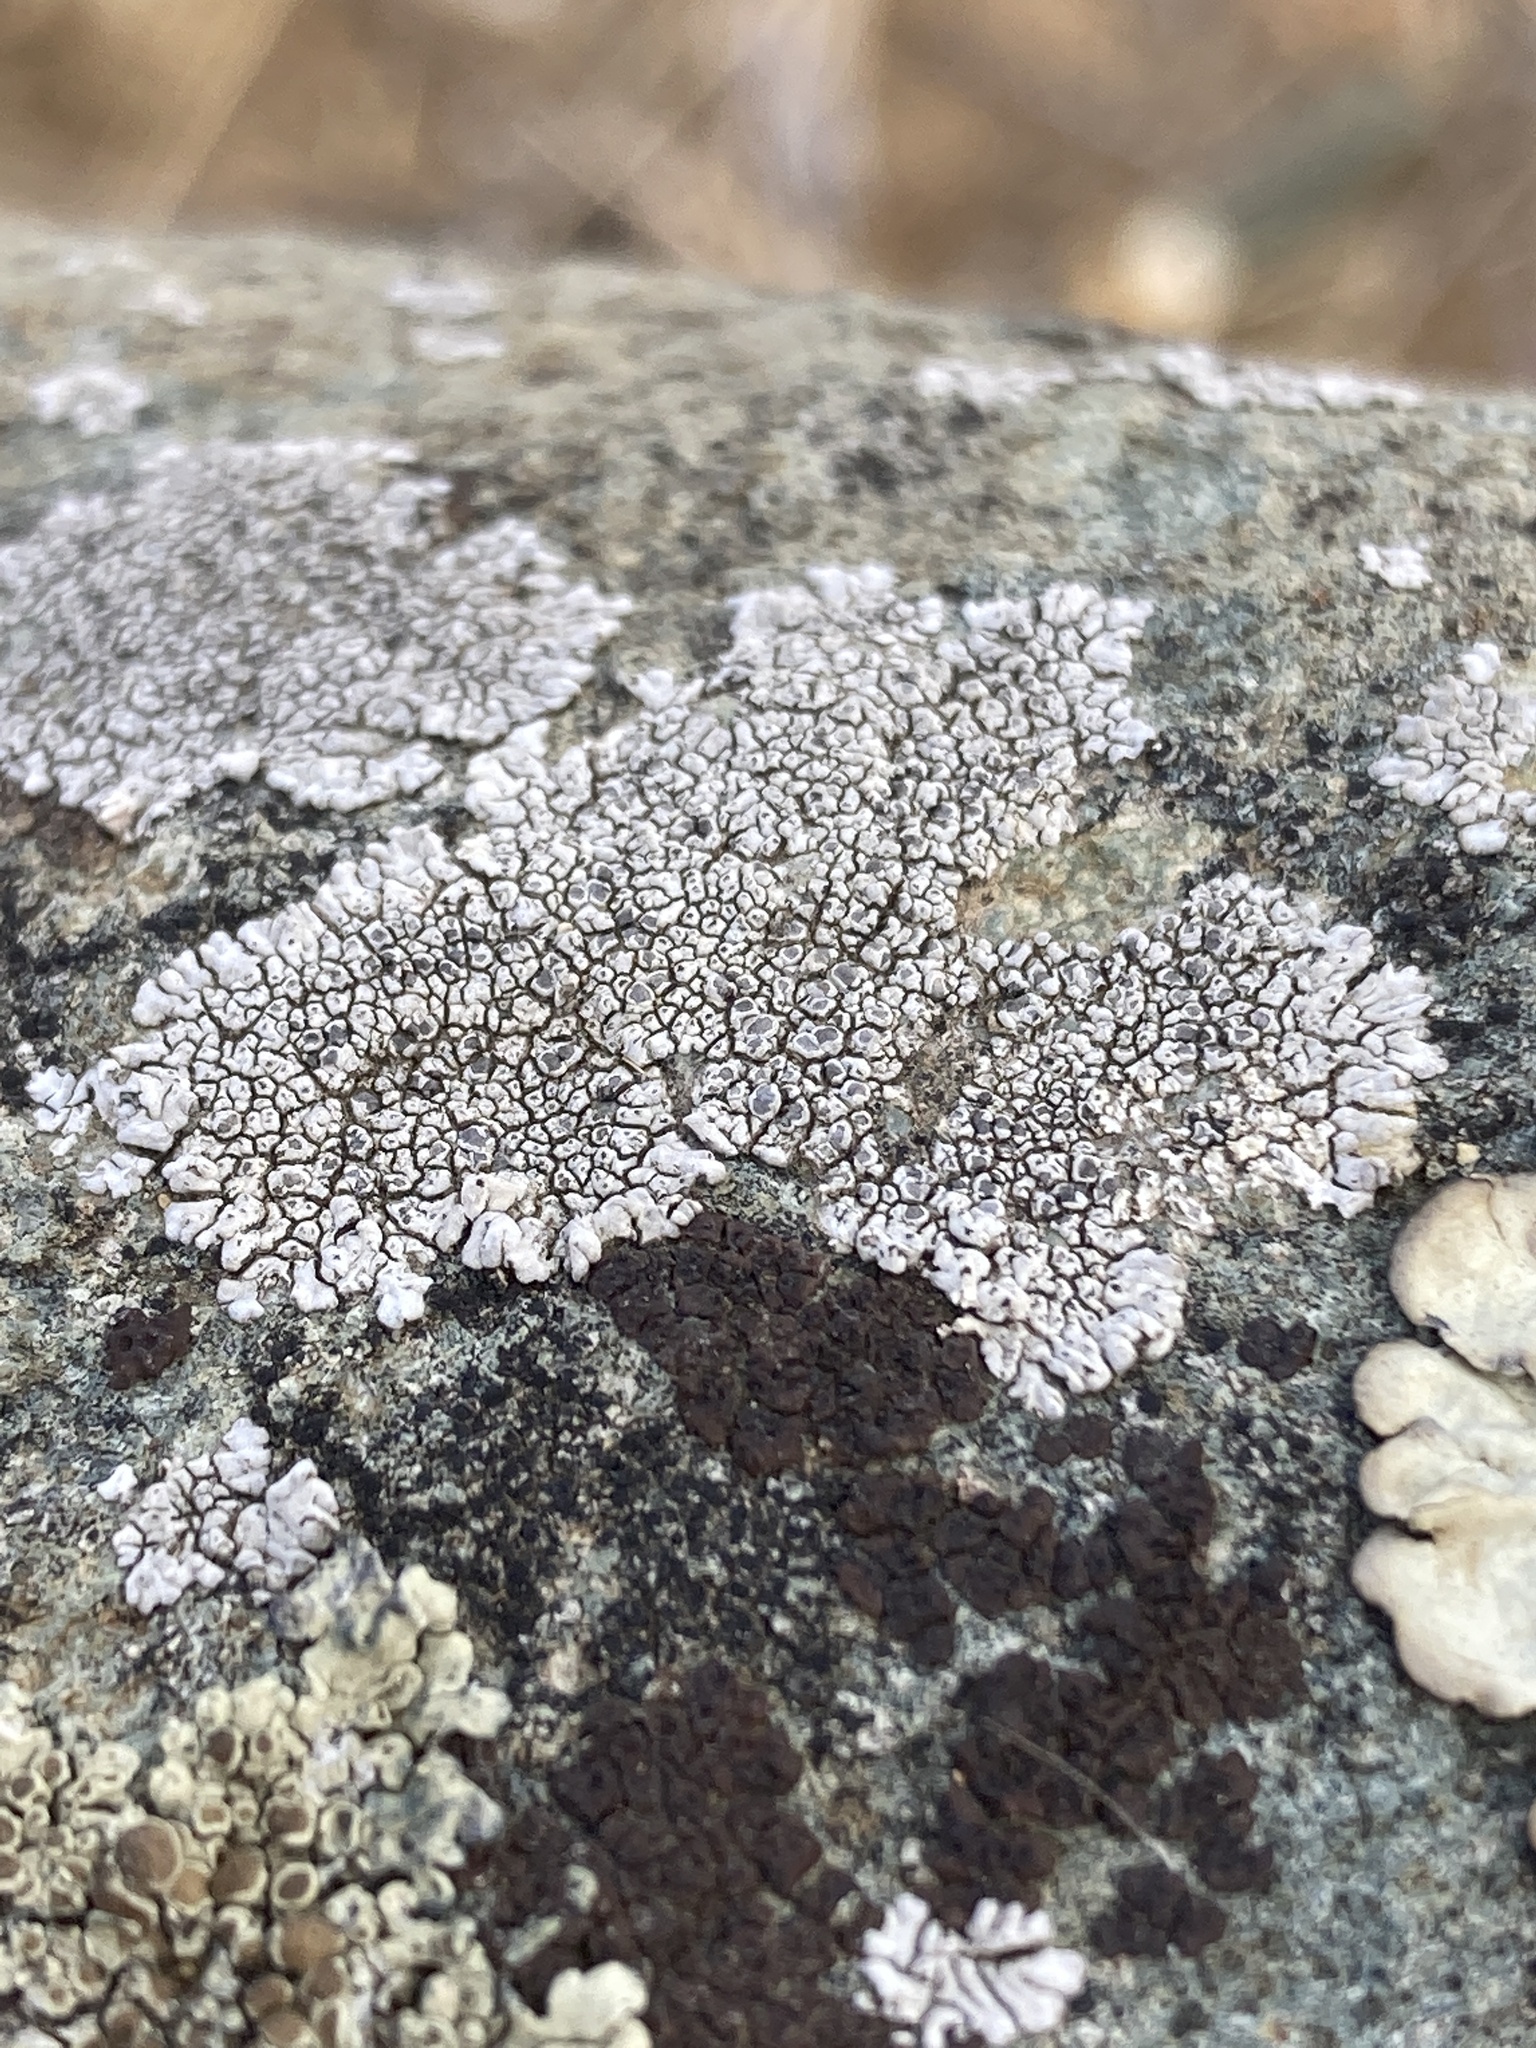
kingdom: Fungi
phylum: Ascomycota
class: Lecanoromycetes
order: Caliciales
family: Caliciaceae
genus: Dimelaena
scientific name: Dimelaena radiata
